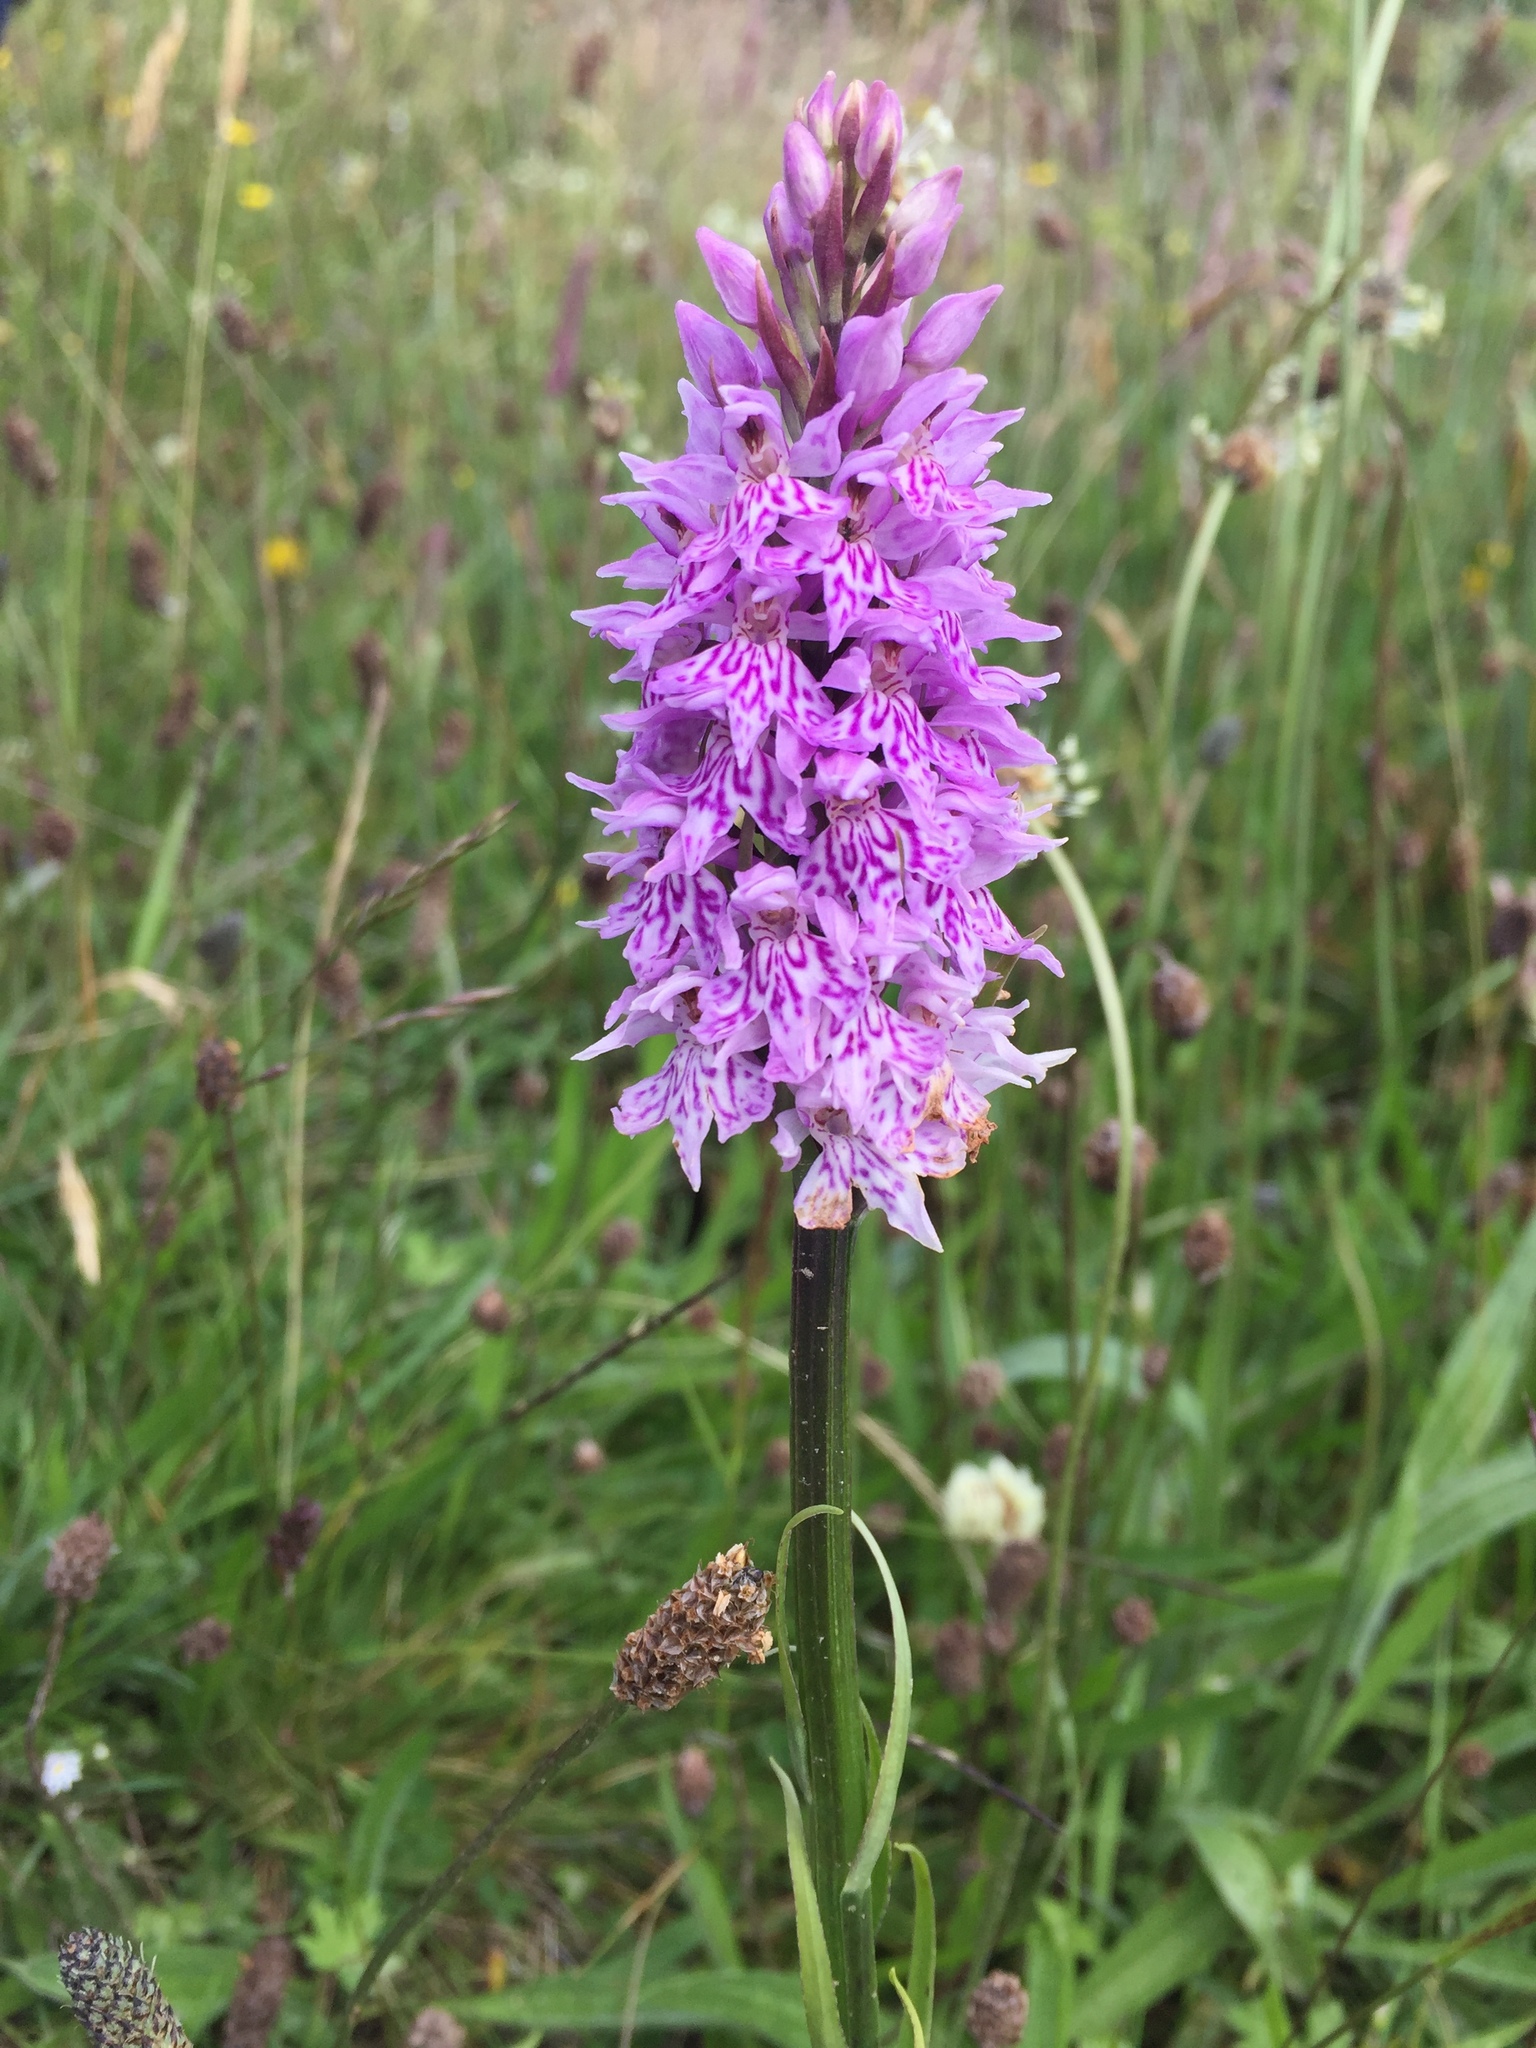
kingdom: Plantae
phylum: Tracheophyta
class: Liliopsida
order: Asparagales
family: Orchidaceae
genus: Dactylorhiza
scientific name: Dactylorhiza maculata
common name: Heath spotted-orchid
